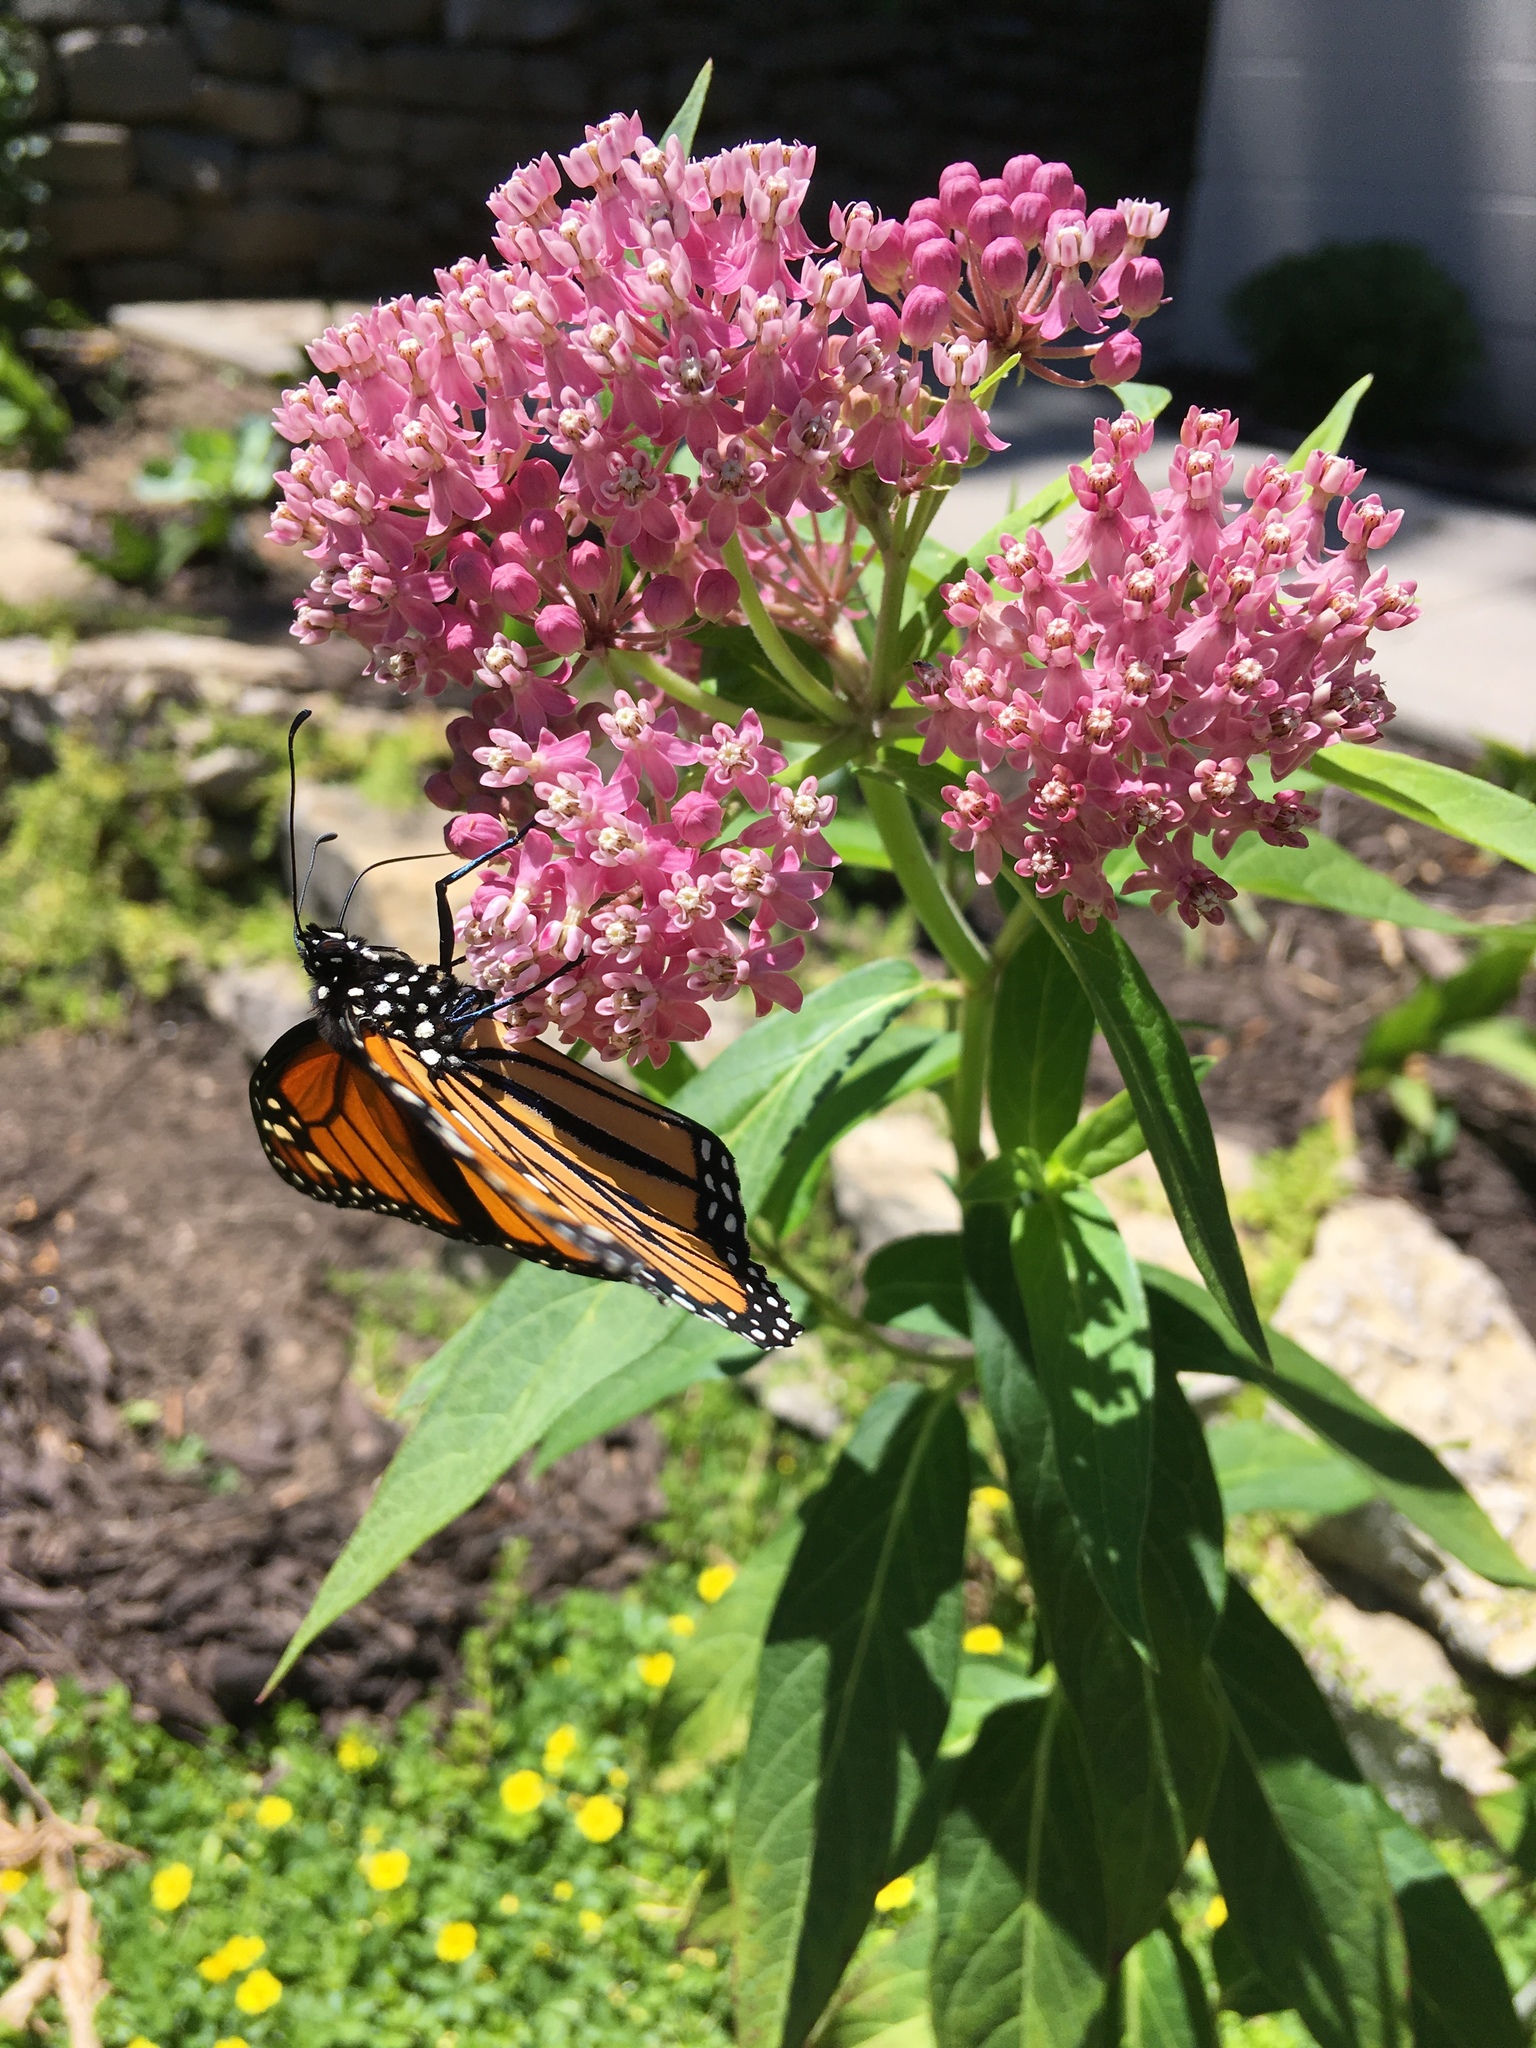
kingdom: Animalia
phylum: Arthropoda
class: Insecta
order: Lepidoptera
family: Nymphalidae
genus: Danaus
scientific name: Danaus plexippus
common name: Monarch
